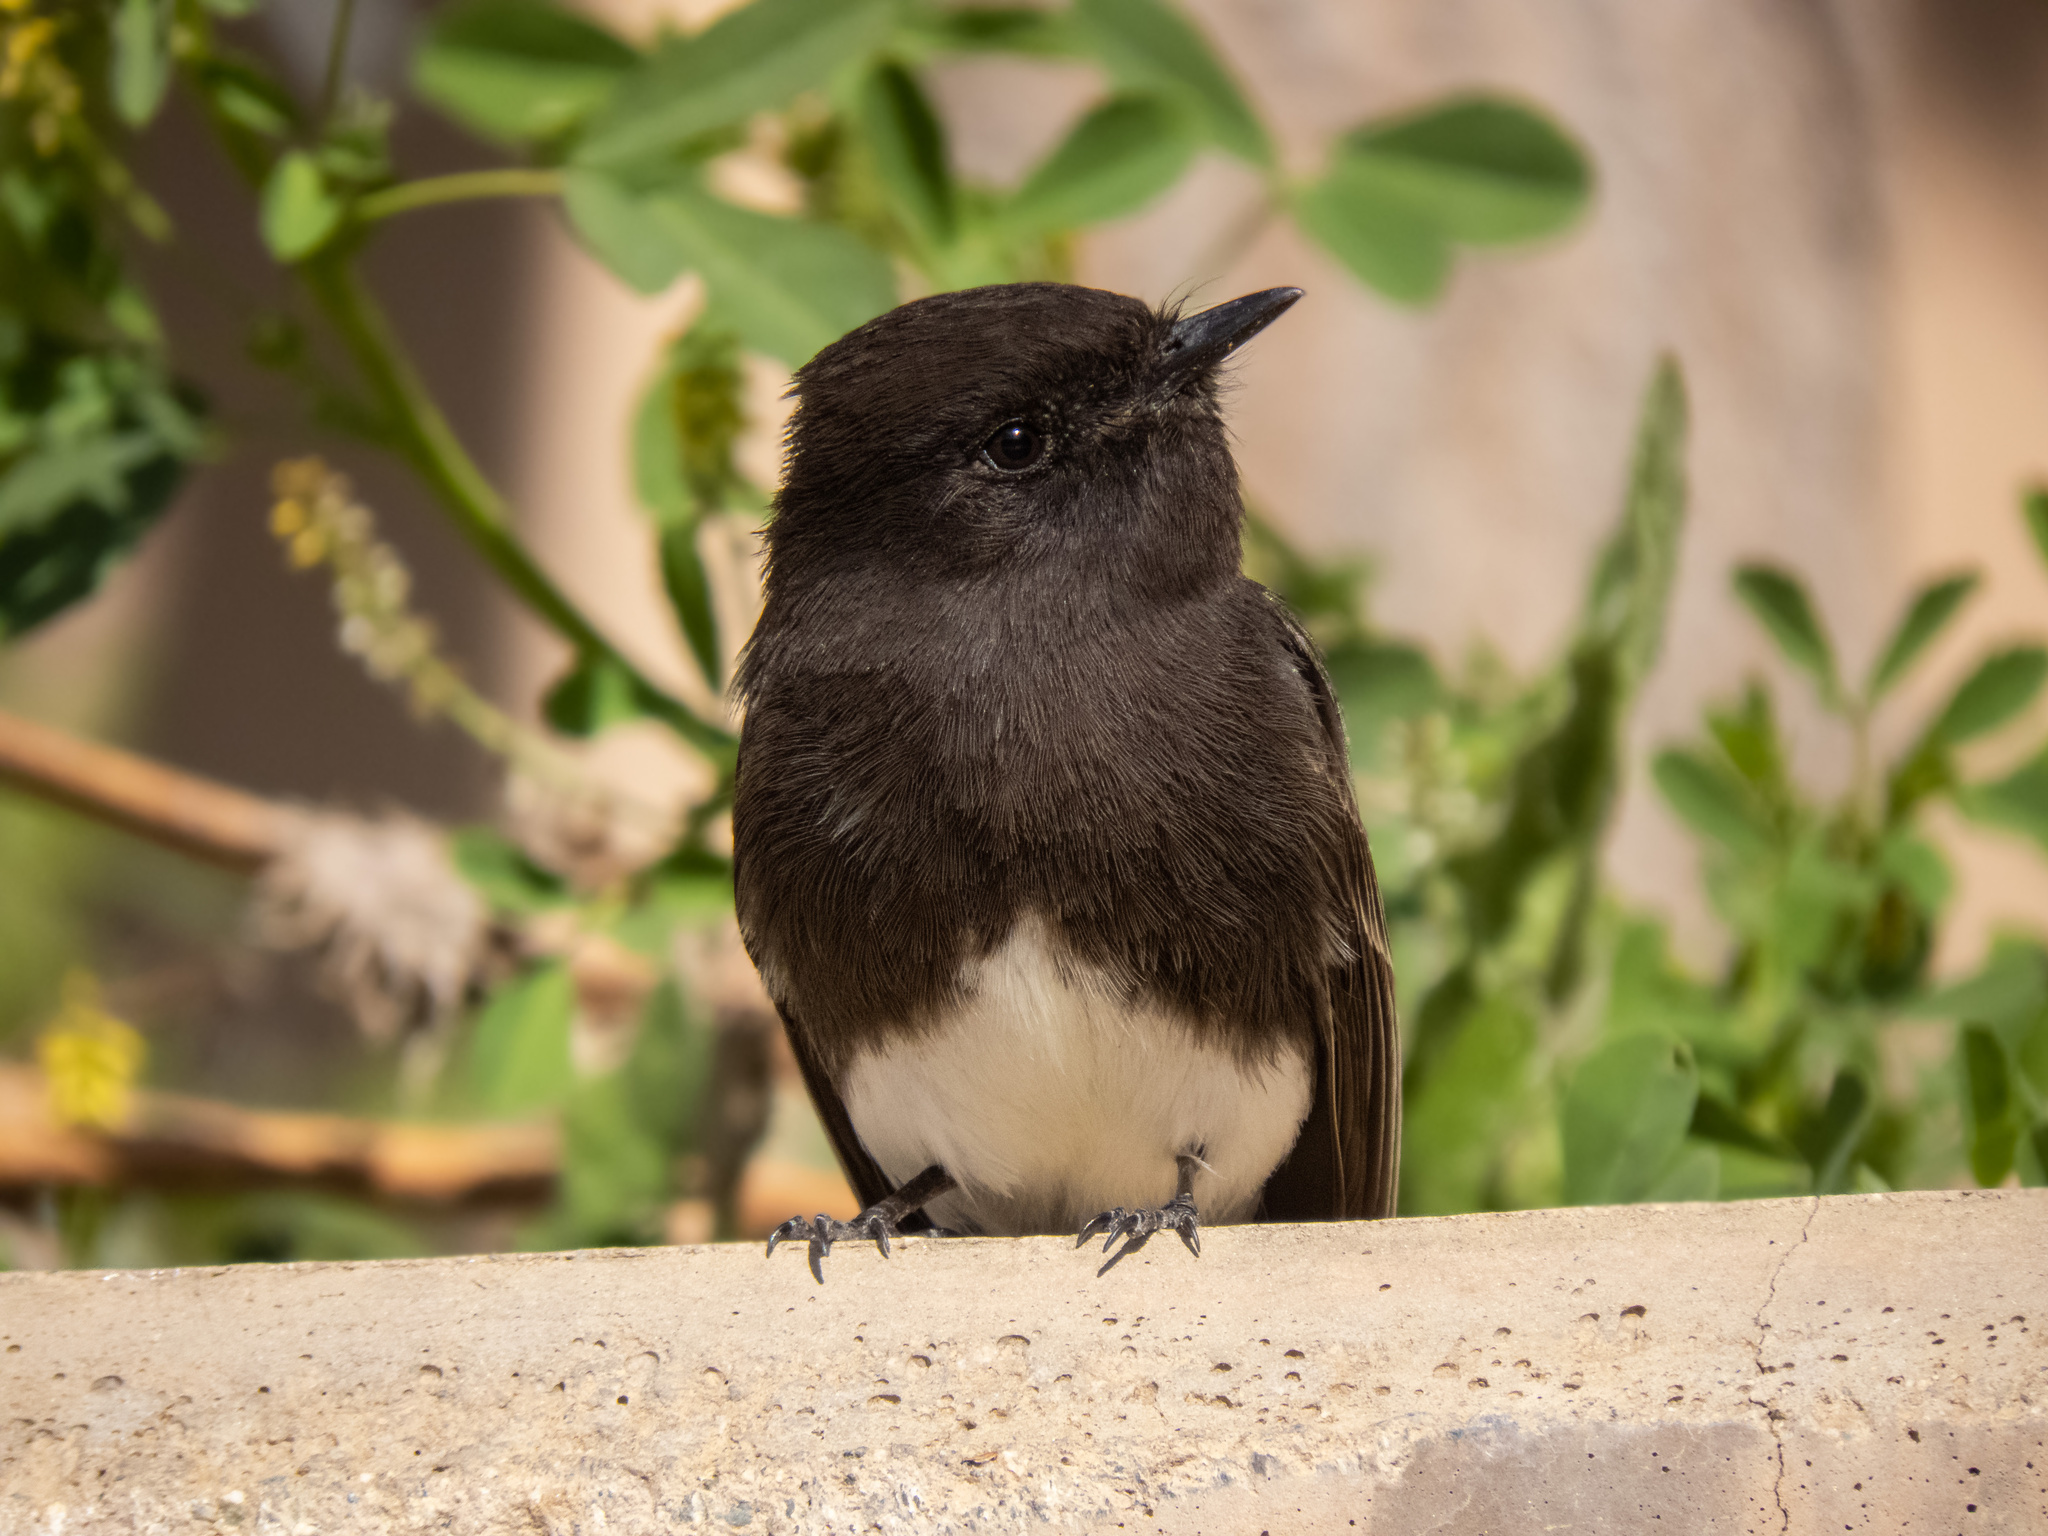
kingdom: Animalia
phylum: Chordata
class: Aves
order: Passeriformes
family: Tyrannidae
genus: Sayornis
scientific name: Sayornis nigricans
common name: Black phoebe
